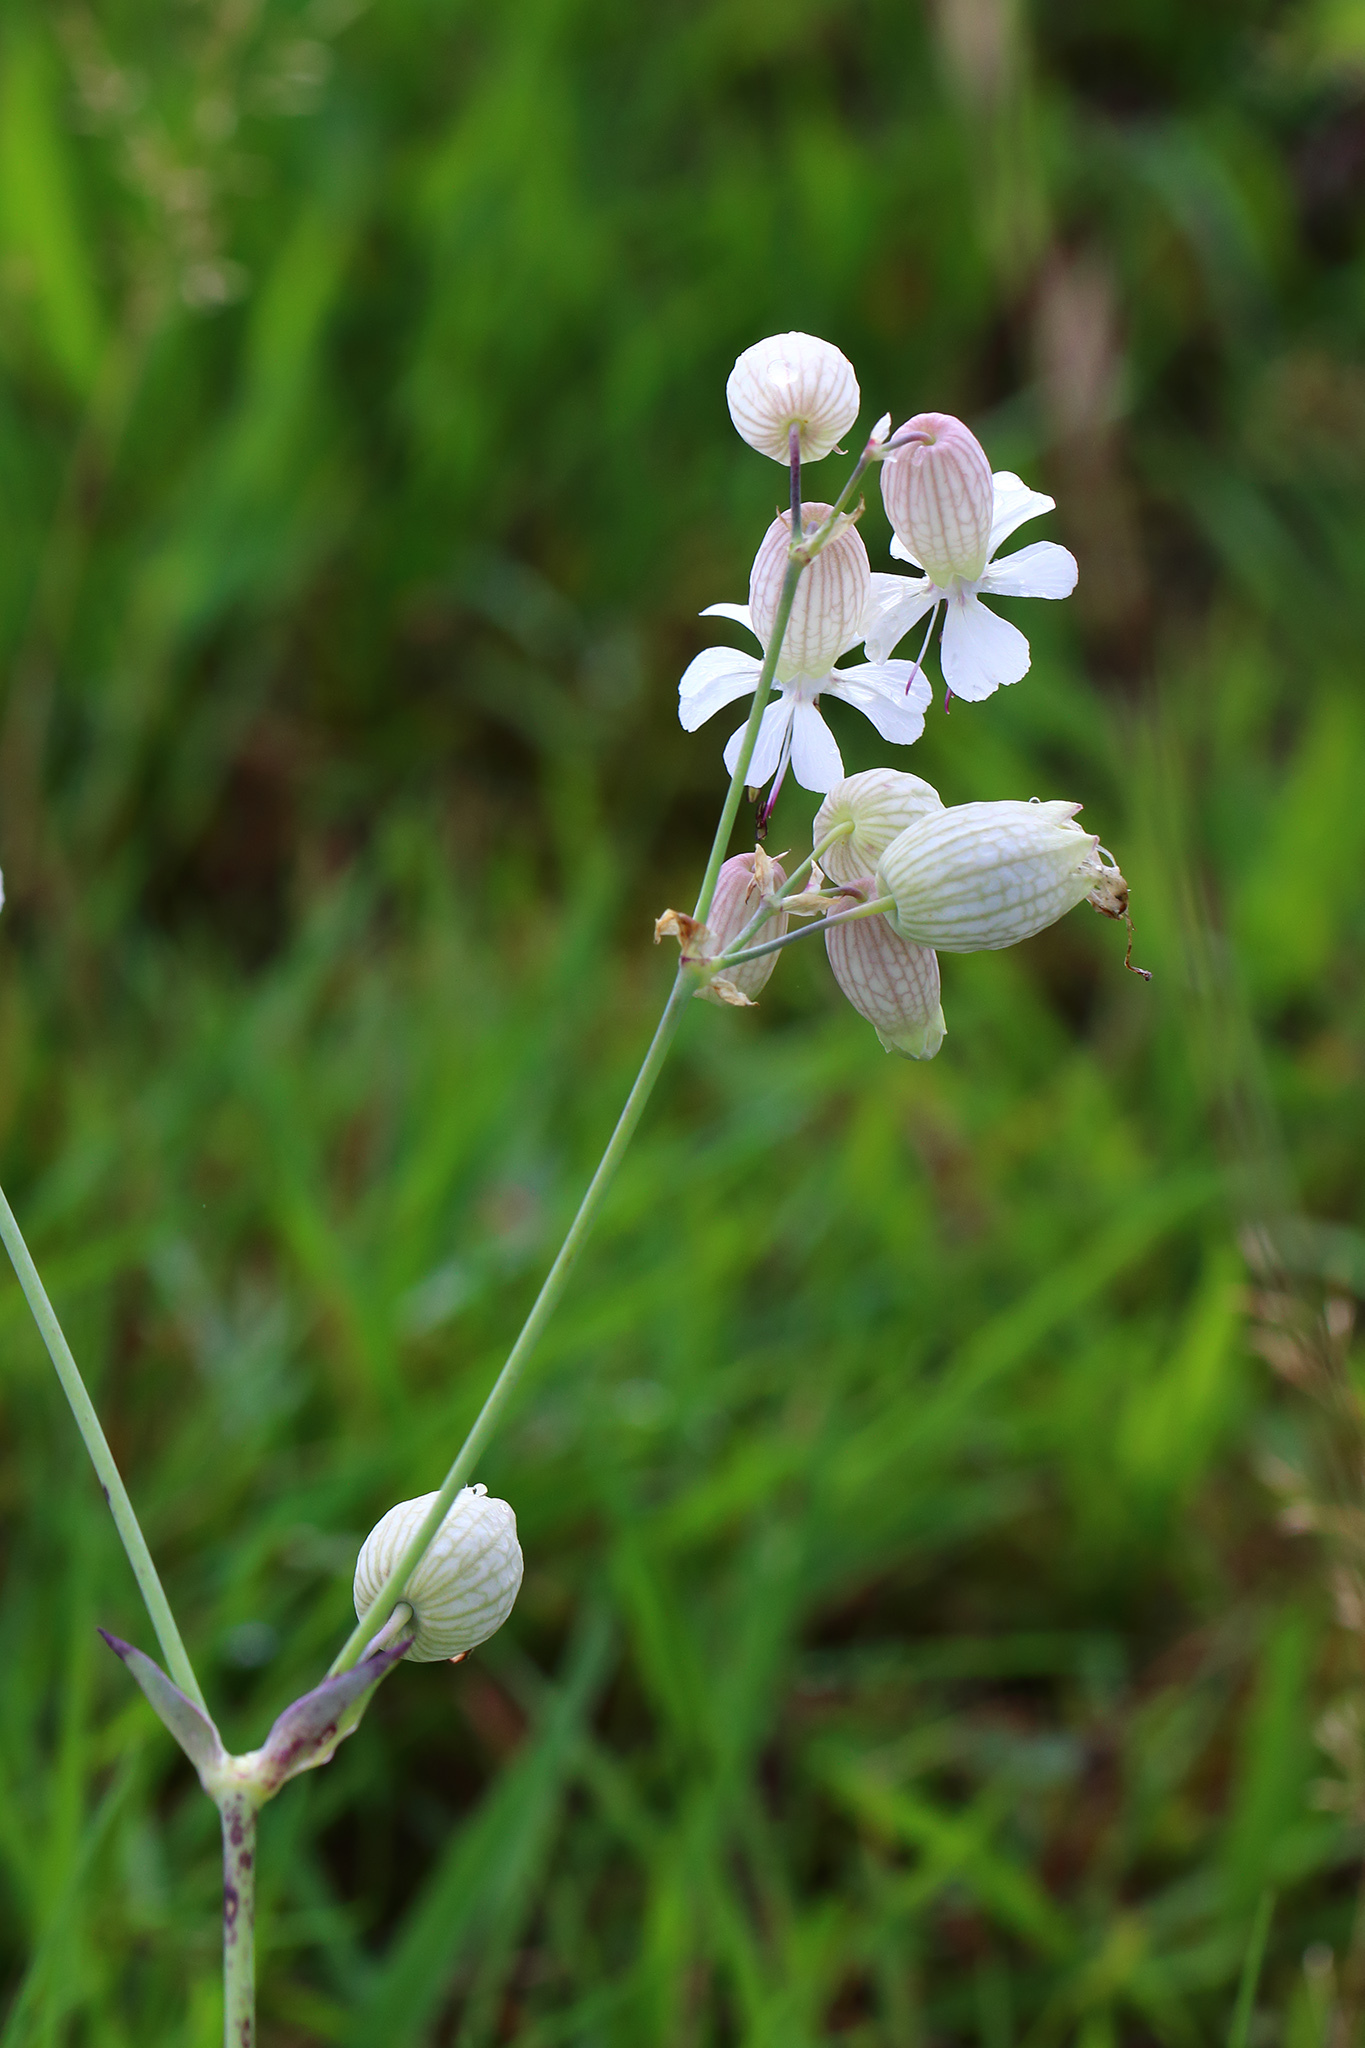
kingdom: Plantae
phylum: Tracheophyta
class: Magnoliopsida
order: Caryophyllales
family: Caryophyllaceae
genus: Silene
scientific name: Silene vulgaris
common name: Bladder campion
